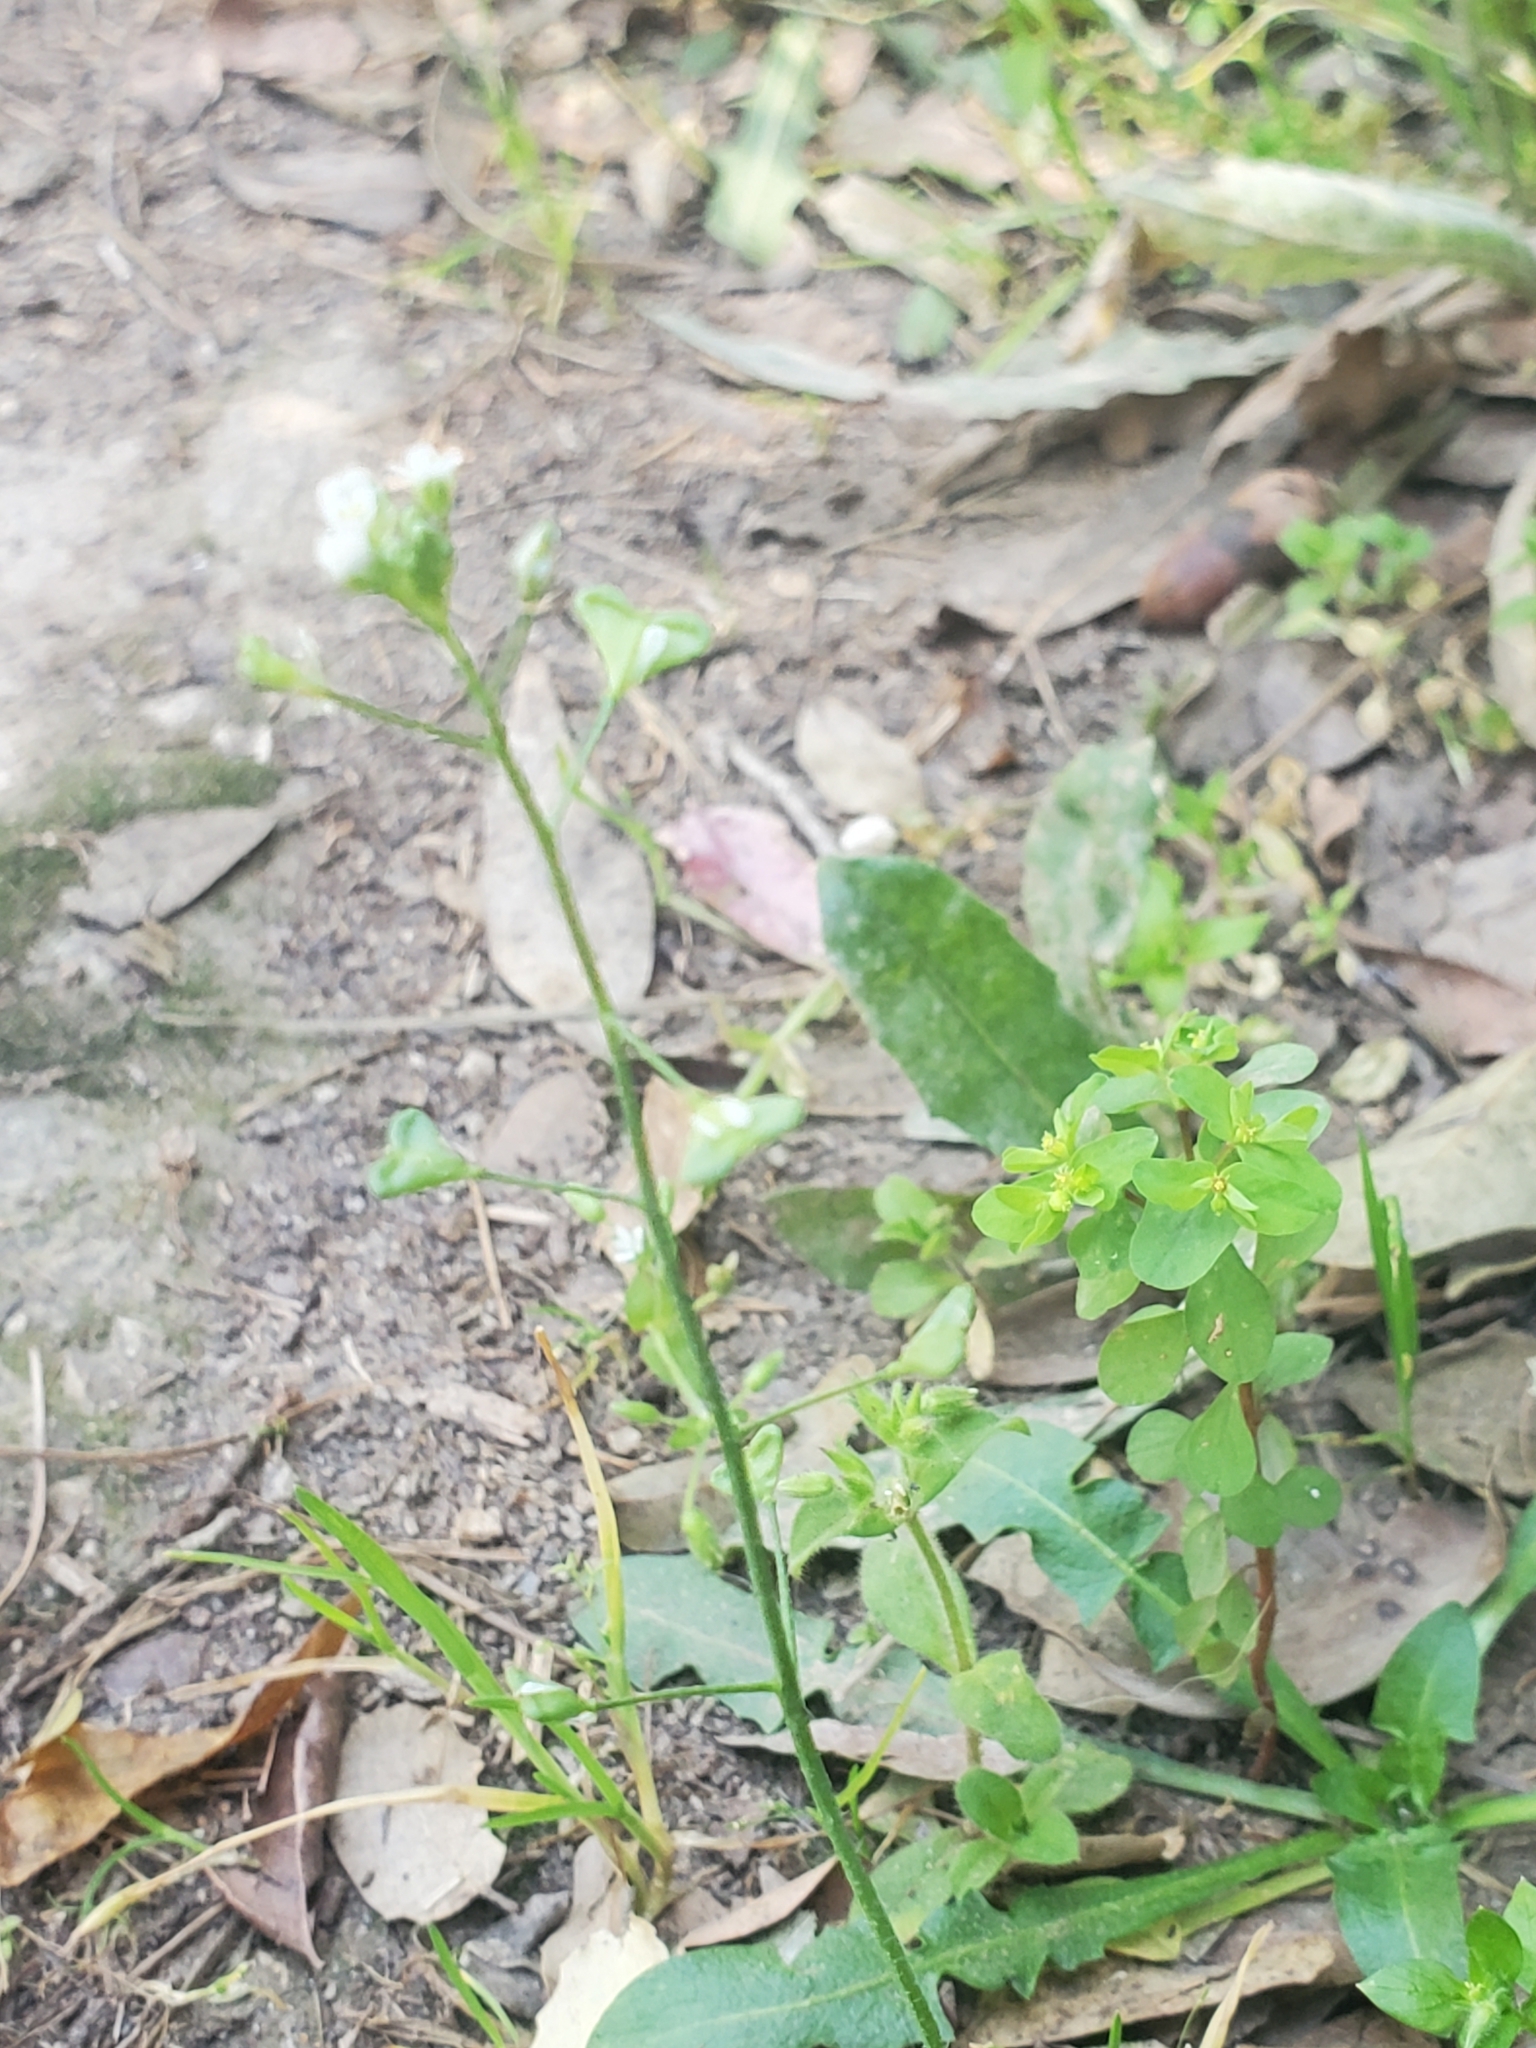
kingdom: Plantae
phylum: Tracheophyta
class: Magnoliopsida
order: Brassicales
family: Brassicaceae
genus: Capsella
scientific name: Capsella bursa-pastoris
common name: Shepherd's purse
